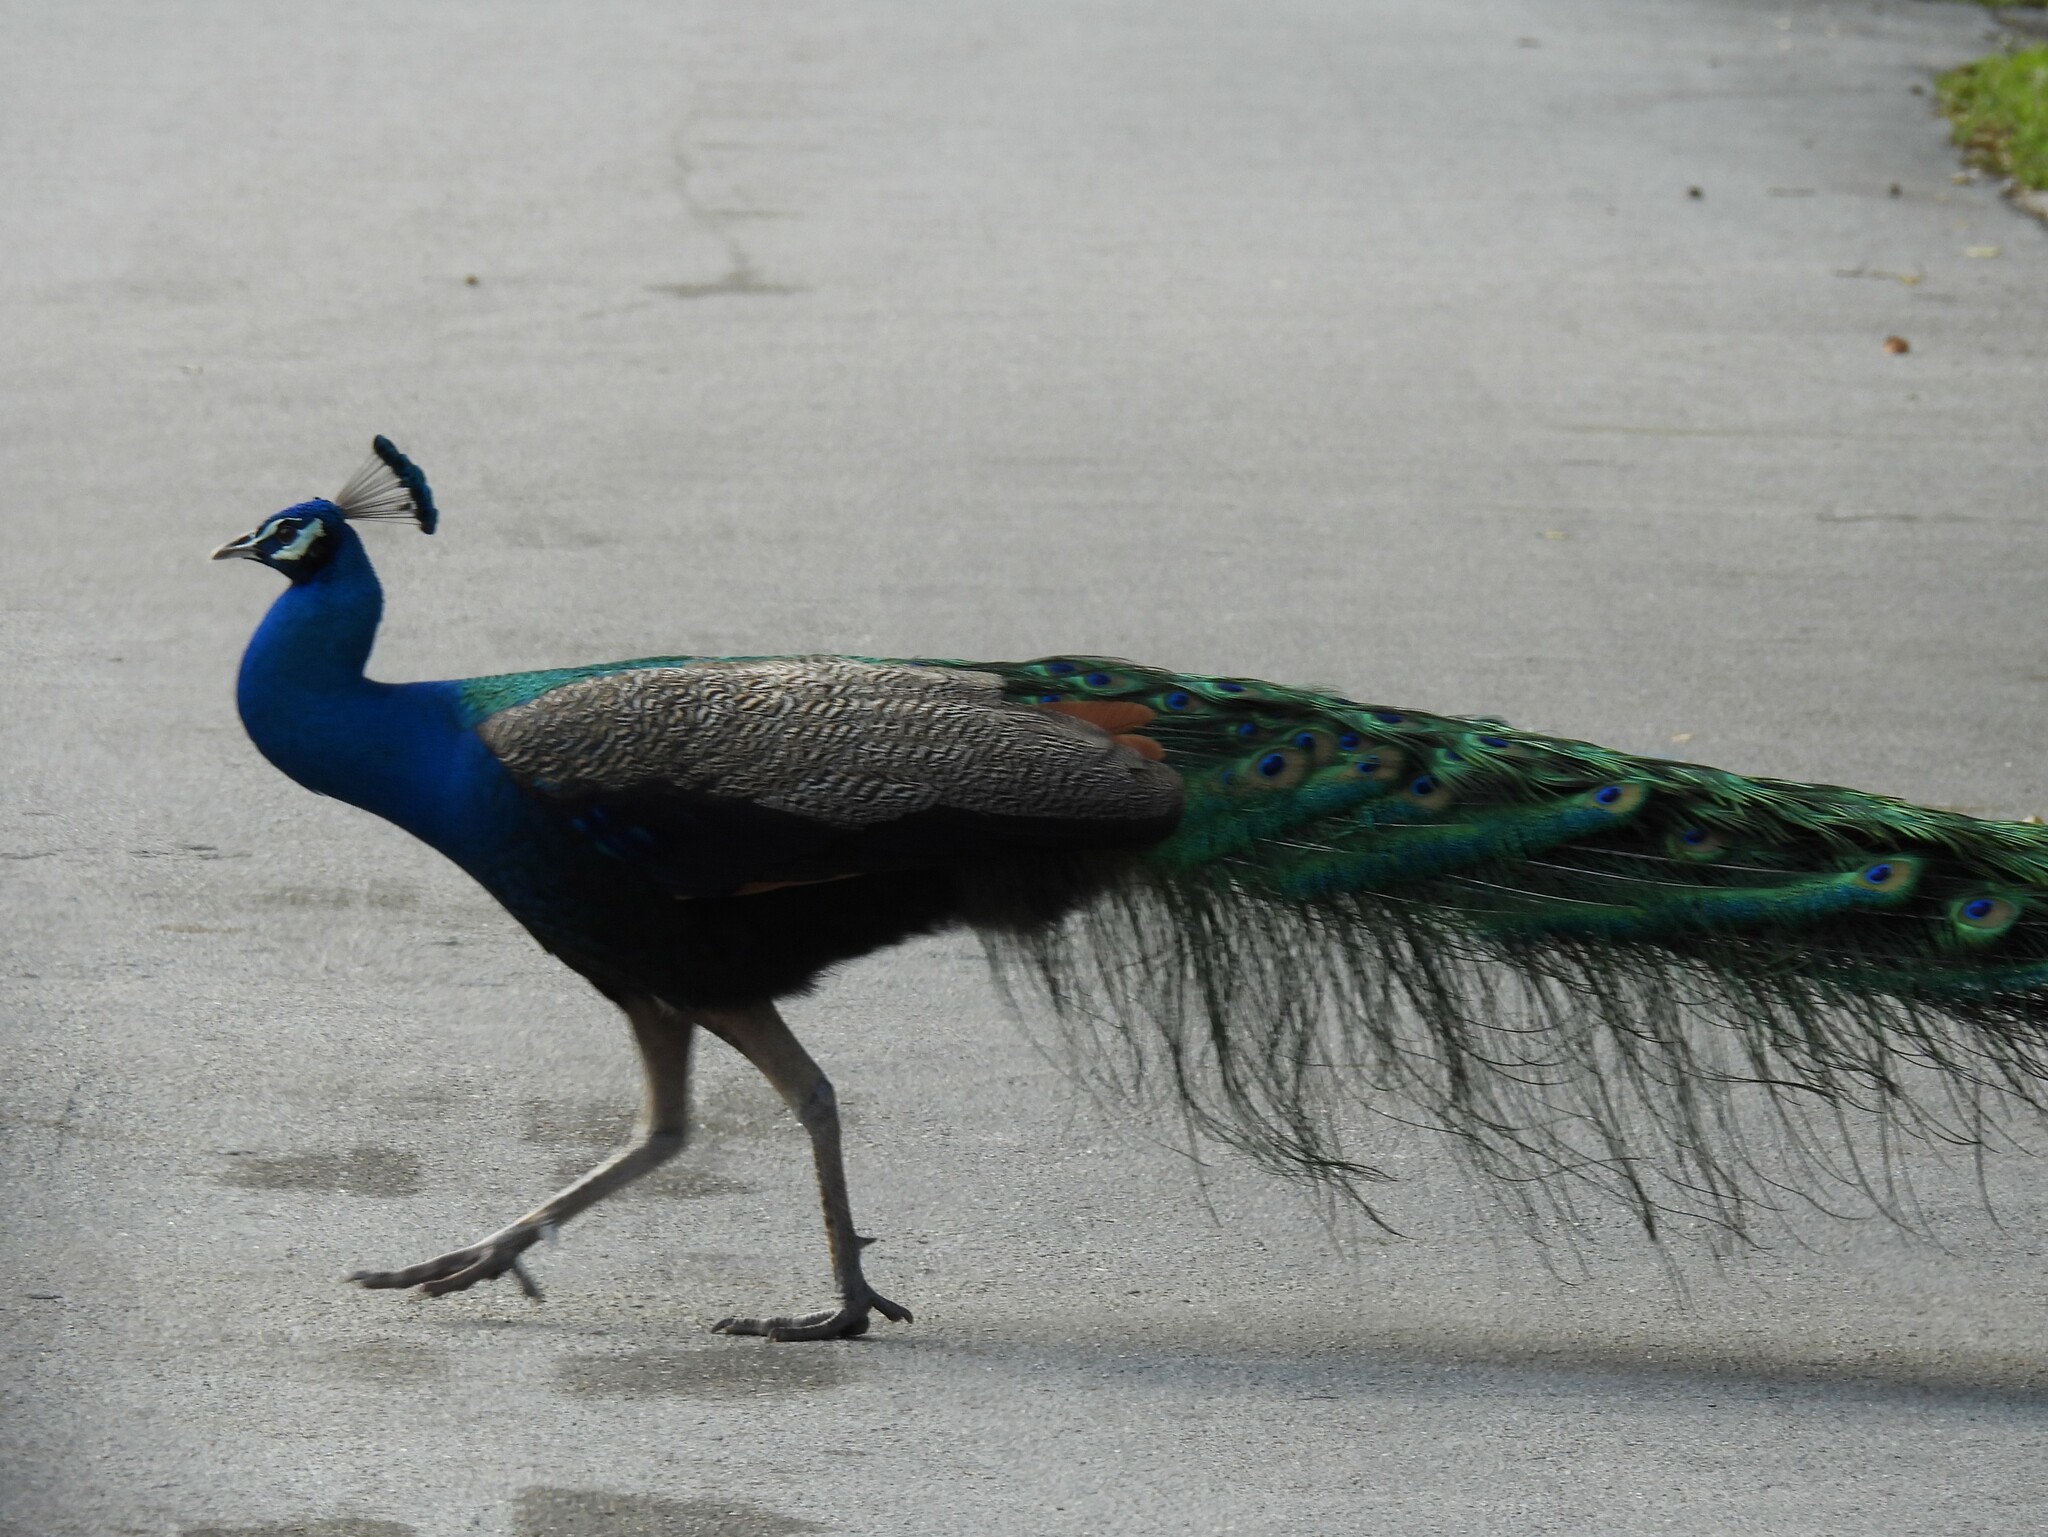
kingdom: Animalia
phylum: Chordata
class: Aves
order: Galliformes
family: Phasianidae
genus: Pavo
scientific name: Pavo cristatus
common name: Indian peafowl
